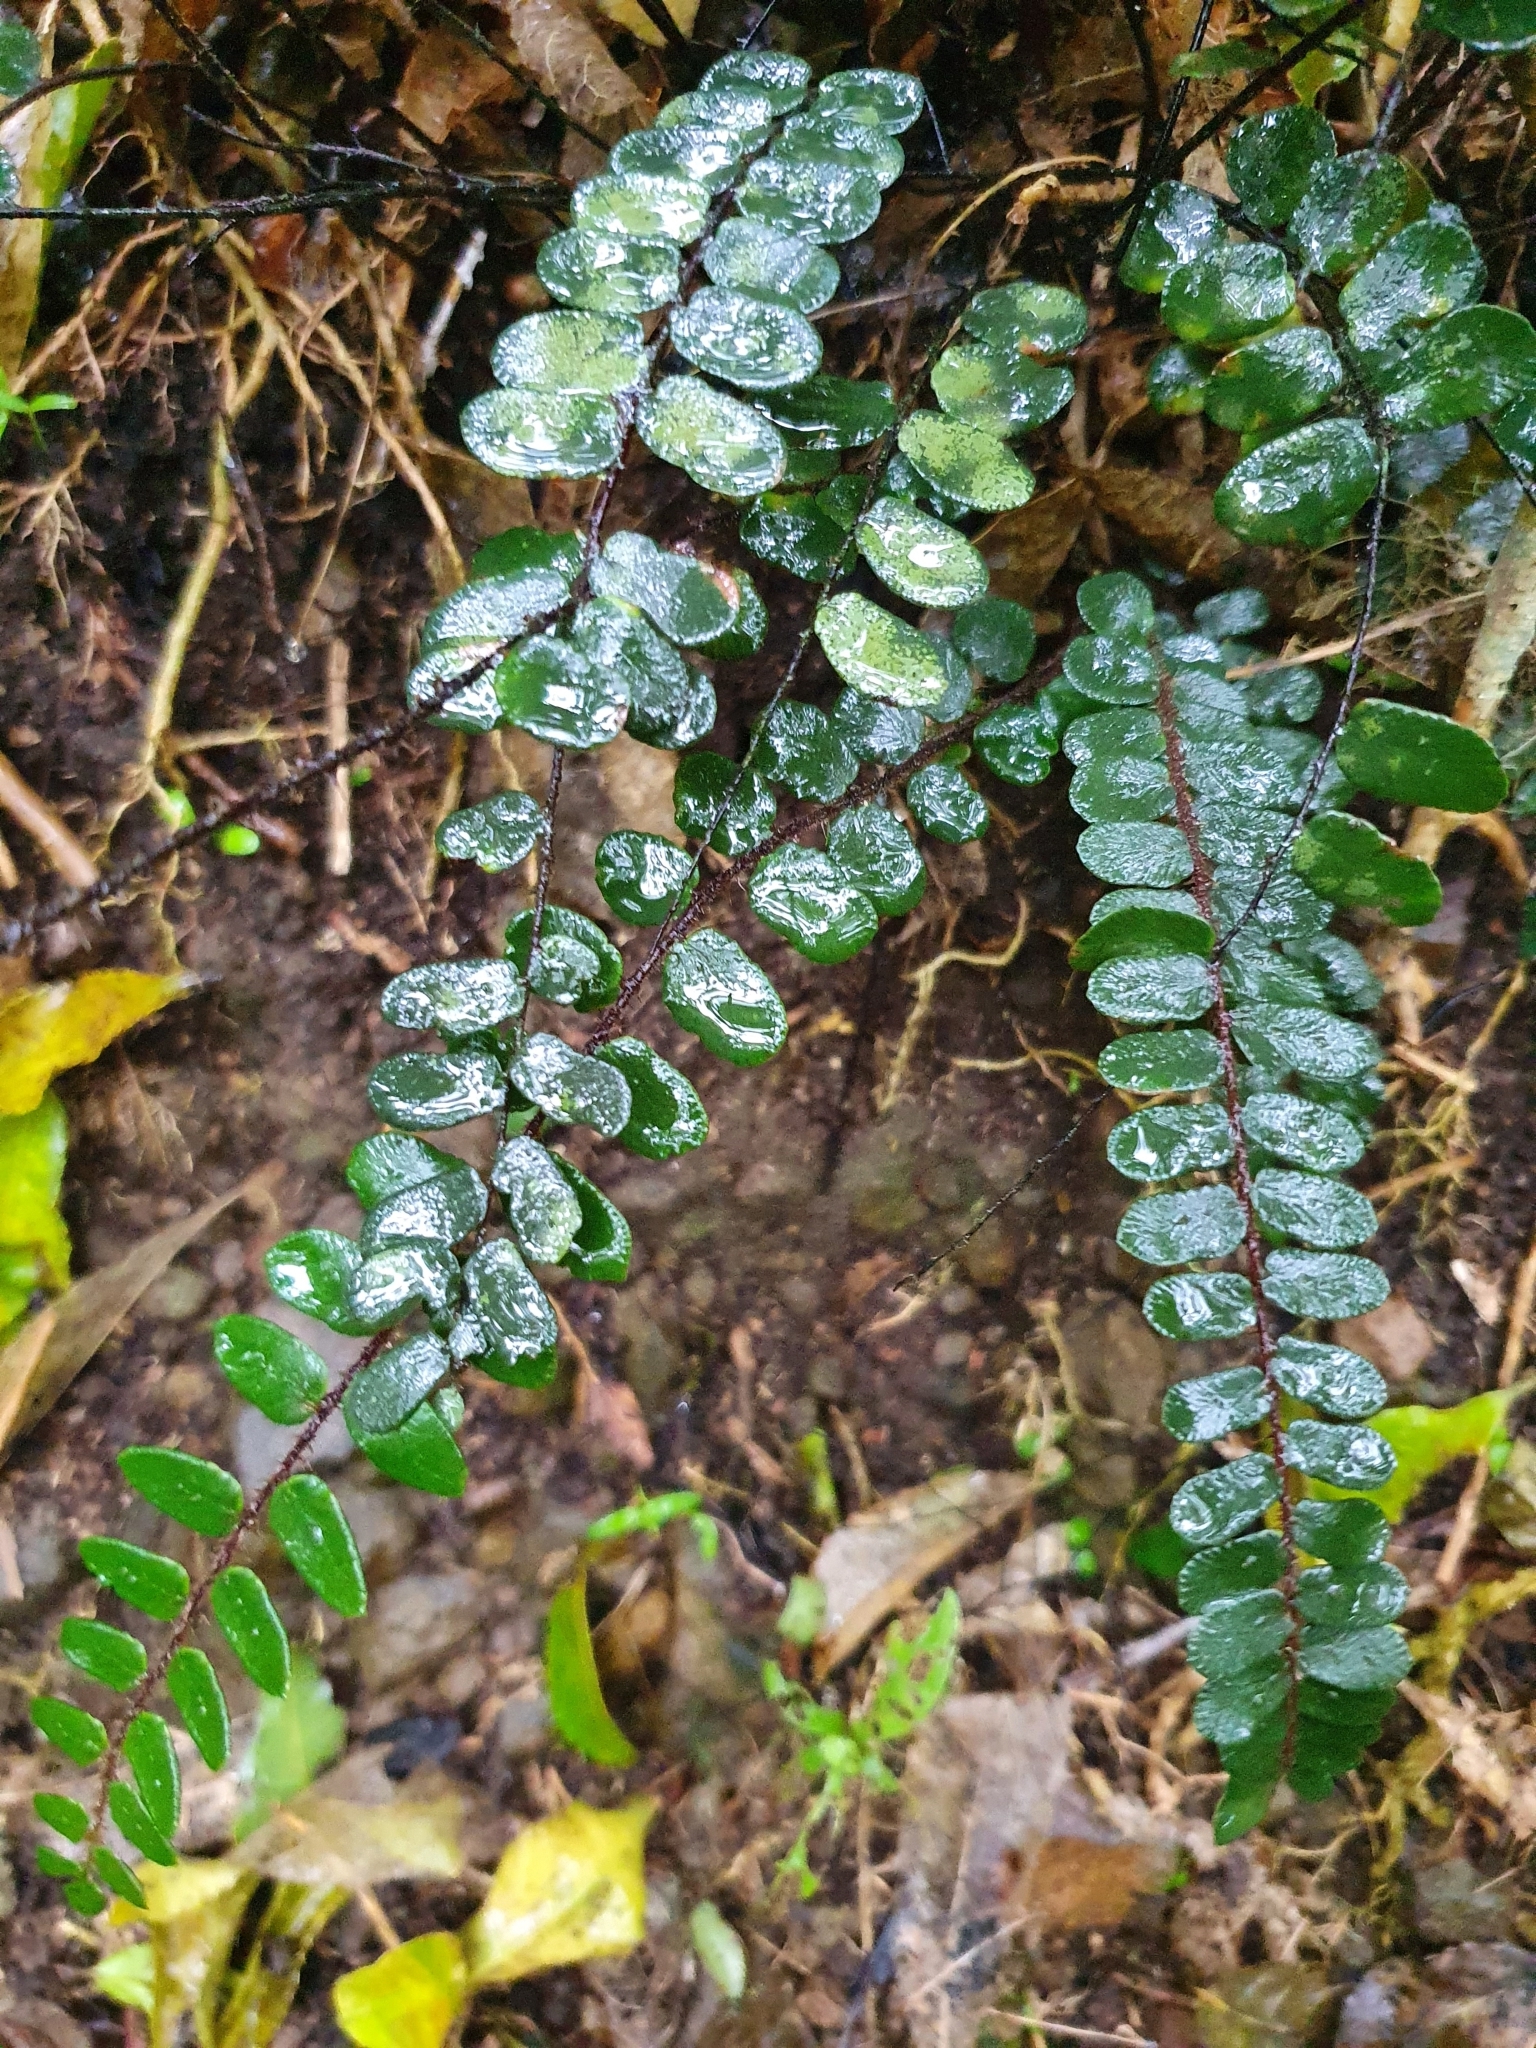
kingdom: Plantae
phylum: Tracheophyta
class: Polypodiopsida
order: Polypodiales
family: Pteridaceae
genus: Pellaea
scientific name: Pellaea rotundifolia
